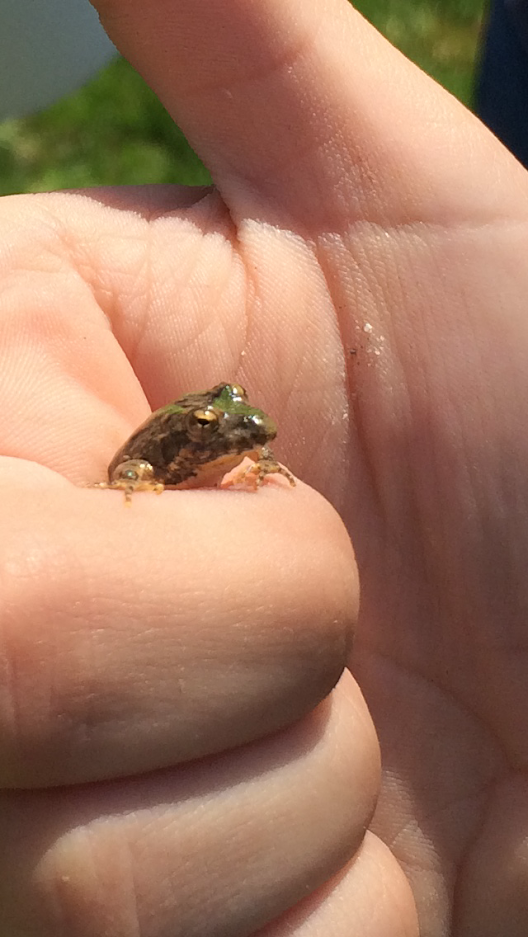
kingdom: Animalia
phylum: Chordata
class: Amphibia
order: Anura
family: Hylidae
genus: Acris
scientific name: Acris blanchardi
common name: Blanchard's cricket frog
